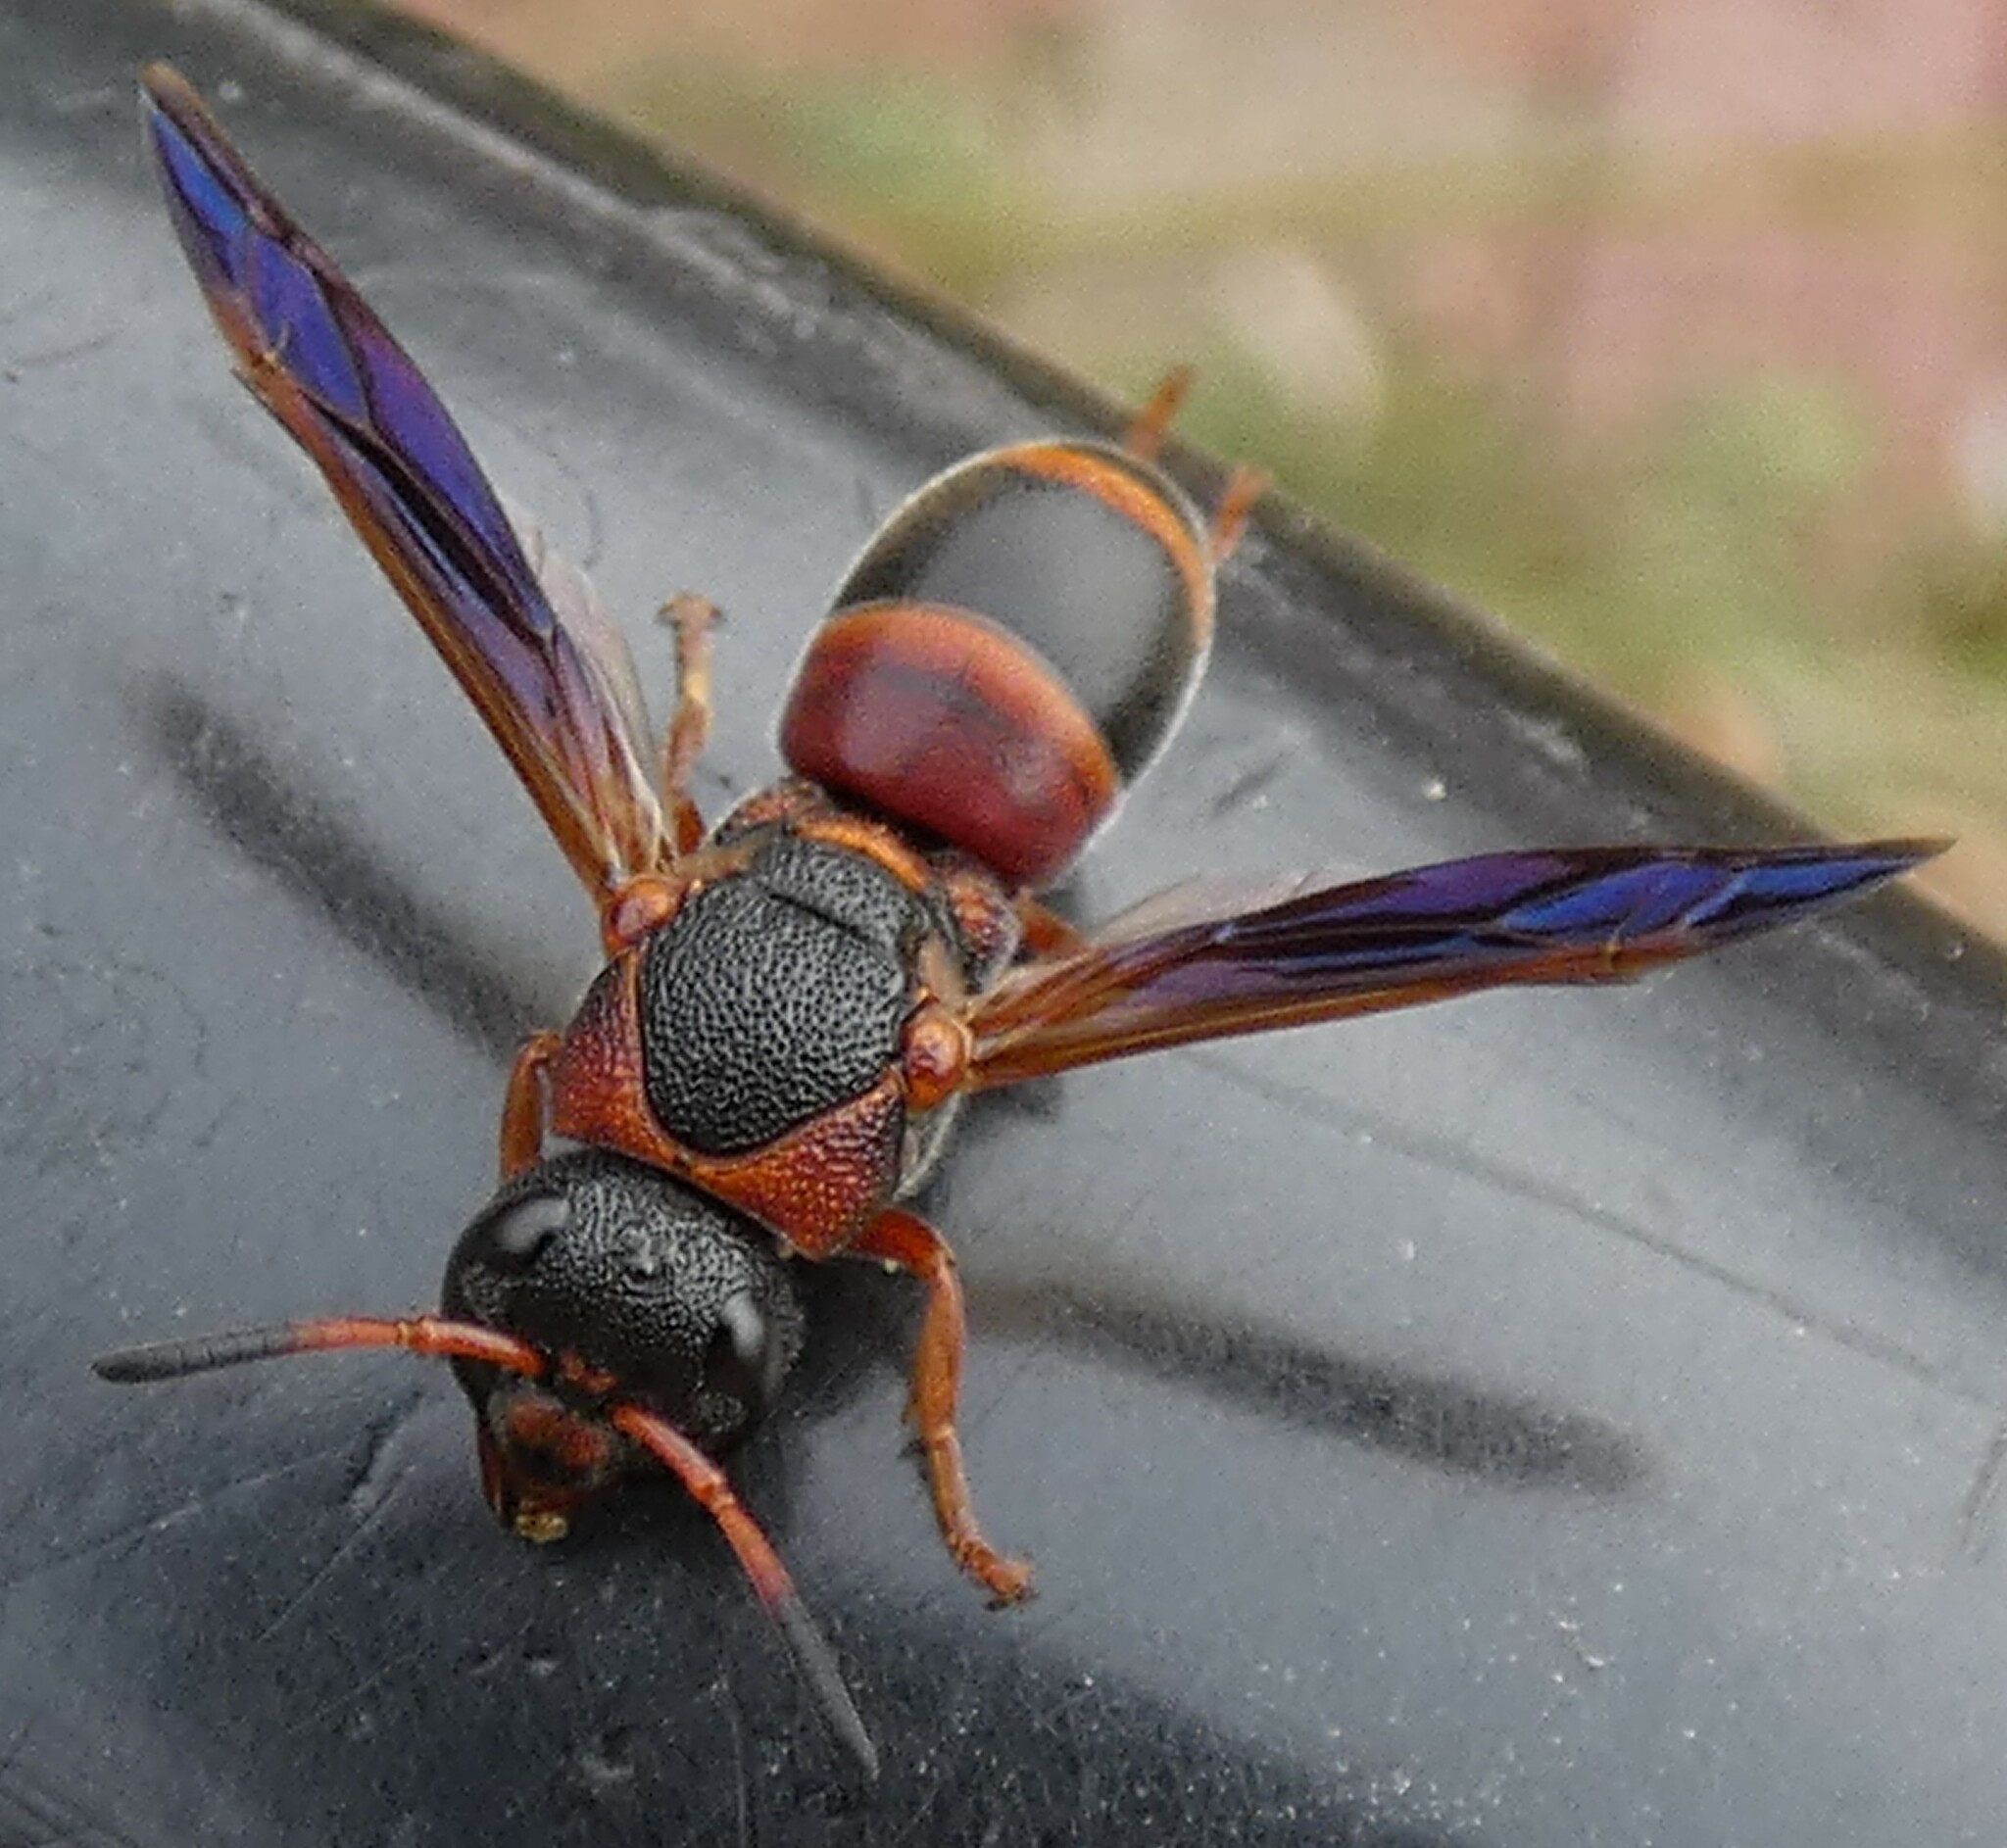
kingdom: Animalia
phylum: Arthropoda
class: Insecta
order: Hymenoptera
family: Eumenidae
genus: Pachodynerus
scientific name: Pachodynerus erynnis
